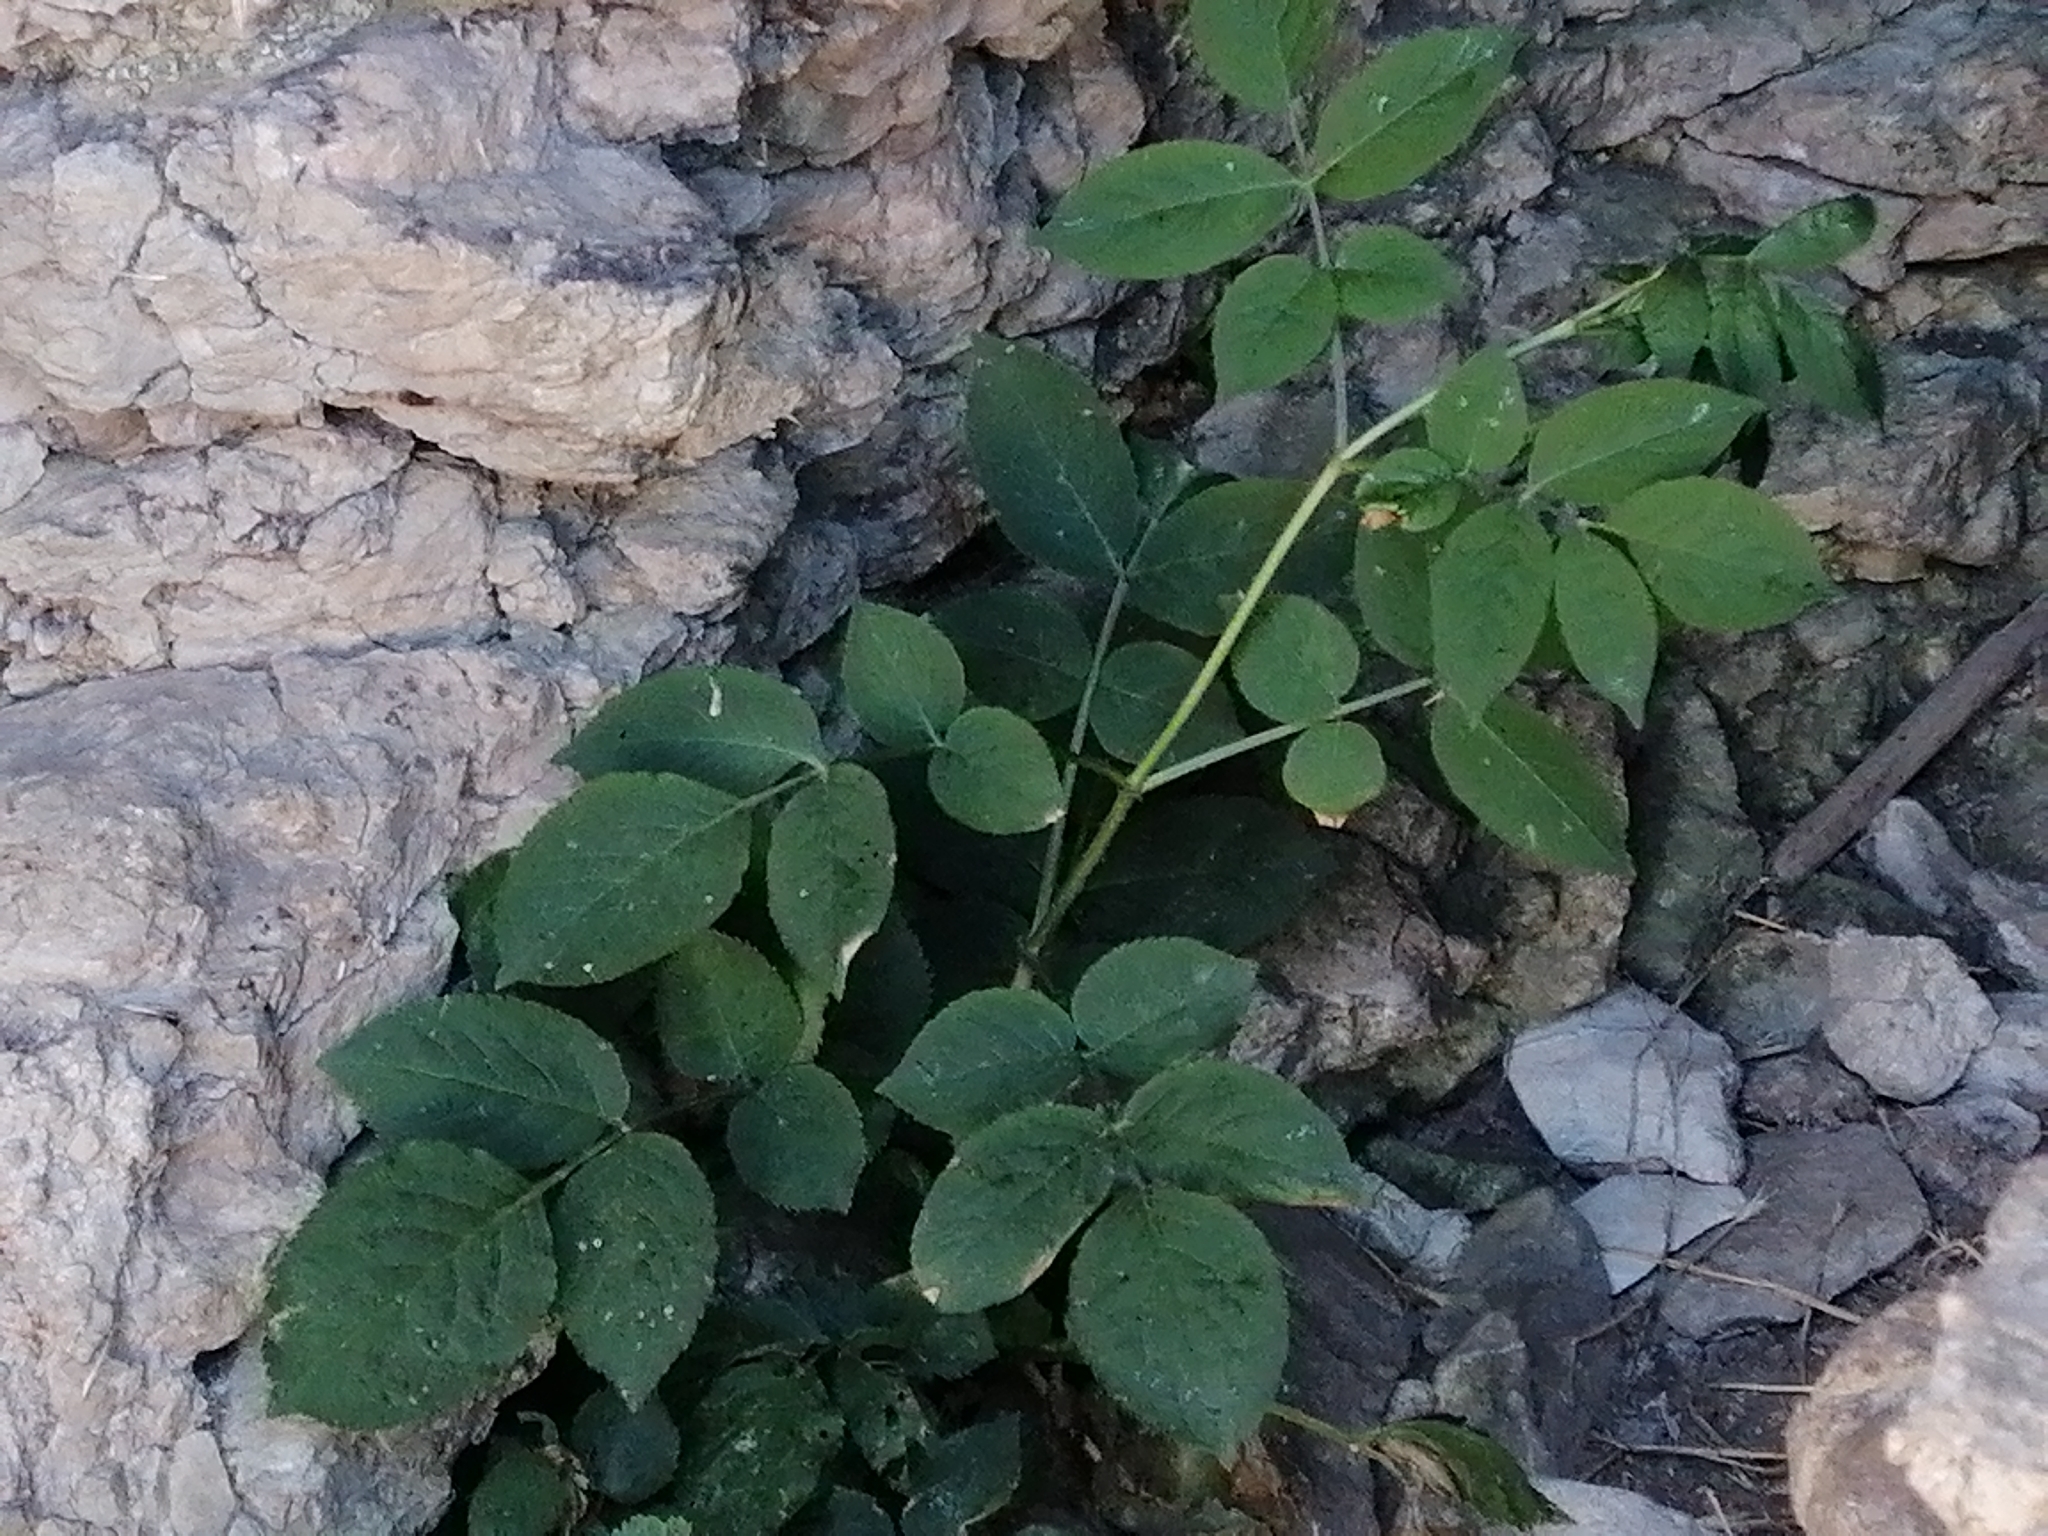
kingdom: Plantae
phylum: Tracheophyta
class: Magnoliopsida
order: Dipsacales
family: Viburnaceae
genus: Sambucus
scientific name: Sambucus nigra
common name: Elder
